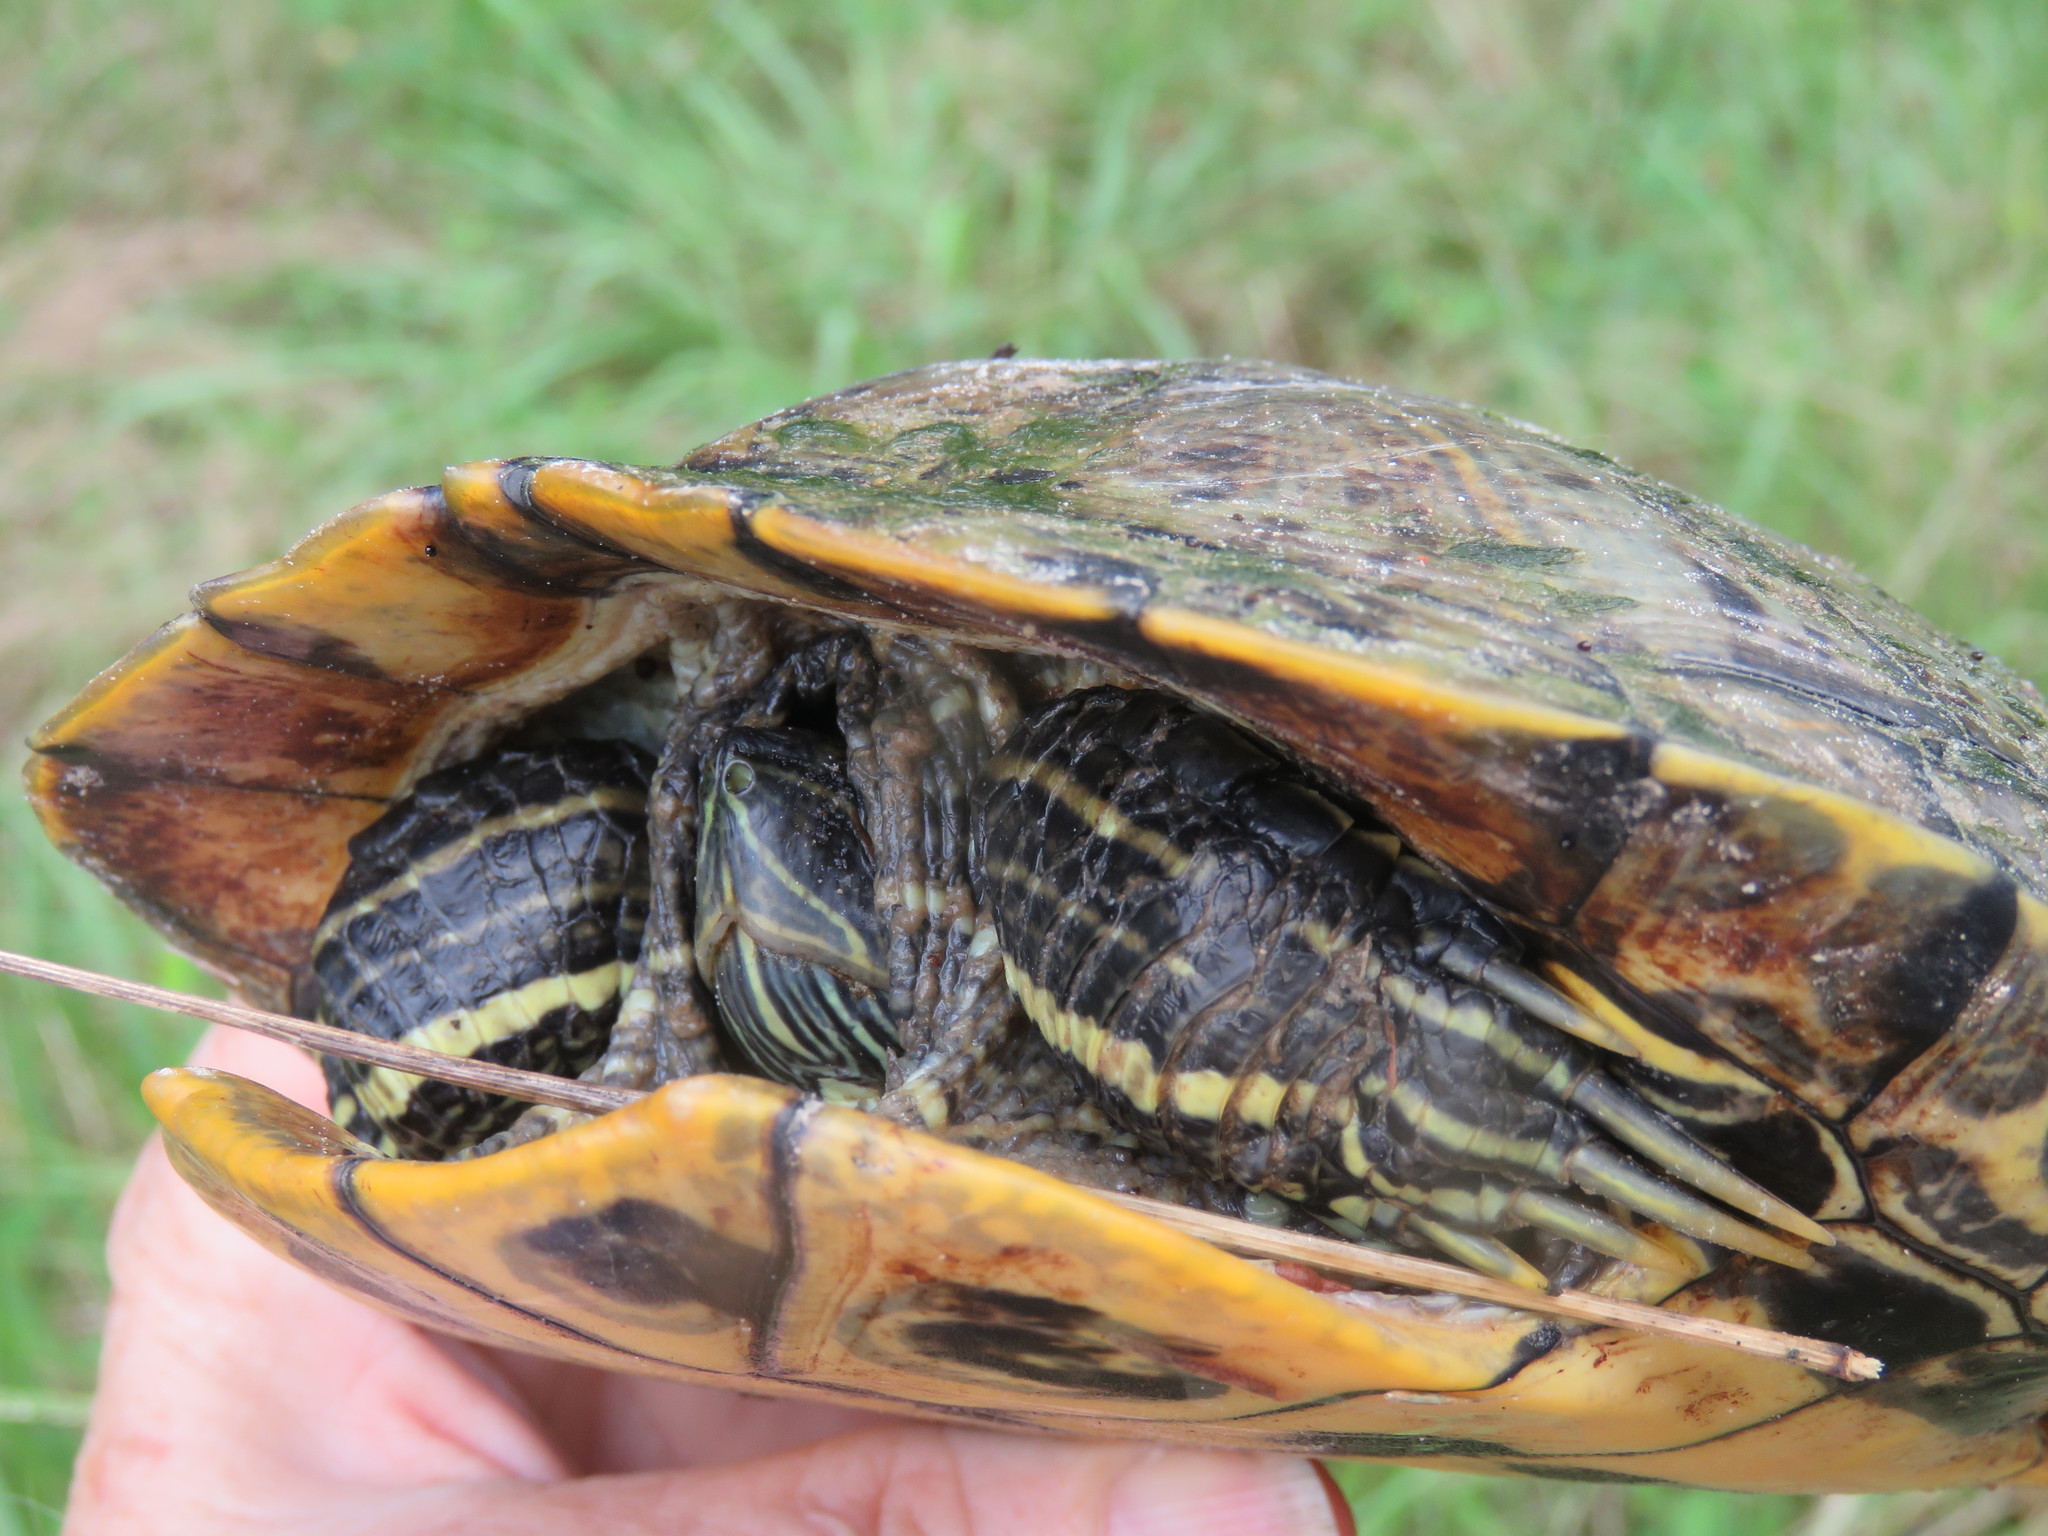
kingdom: Animalia
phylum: Chordata
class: Testudines
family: Emydidae
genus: Trachemys
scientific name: Trachemys scripta
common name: Slider
